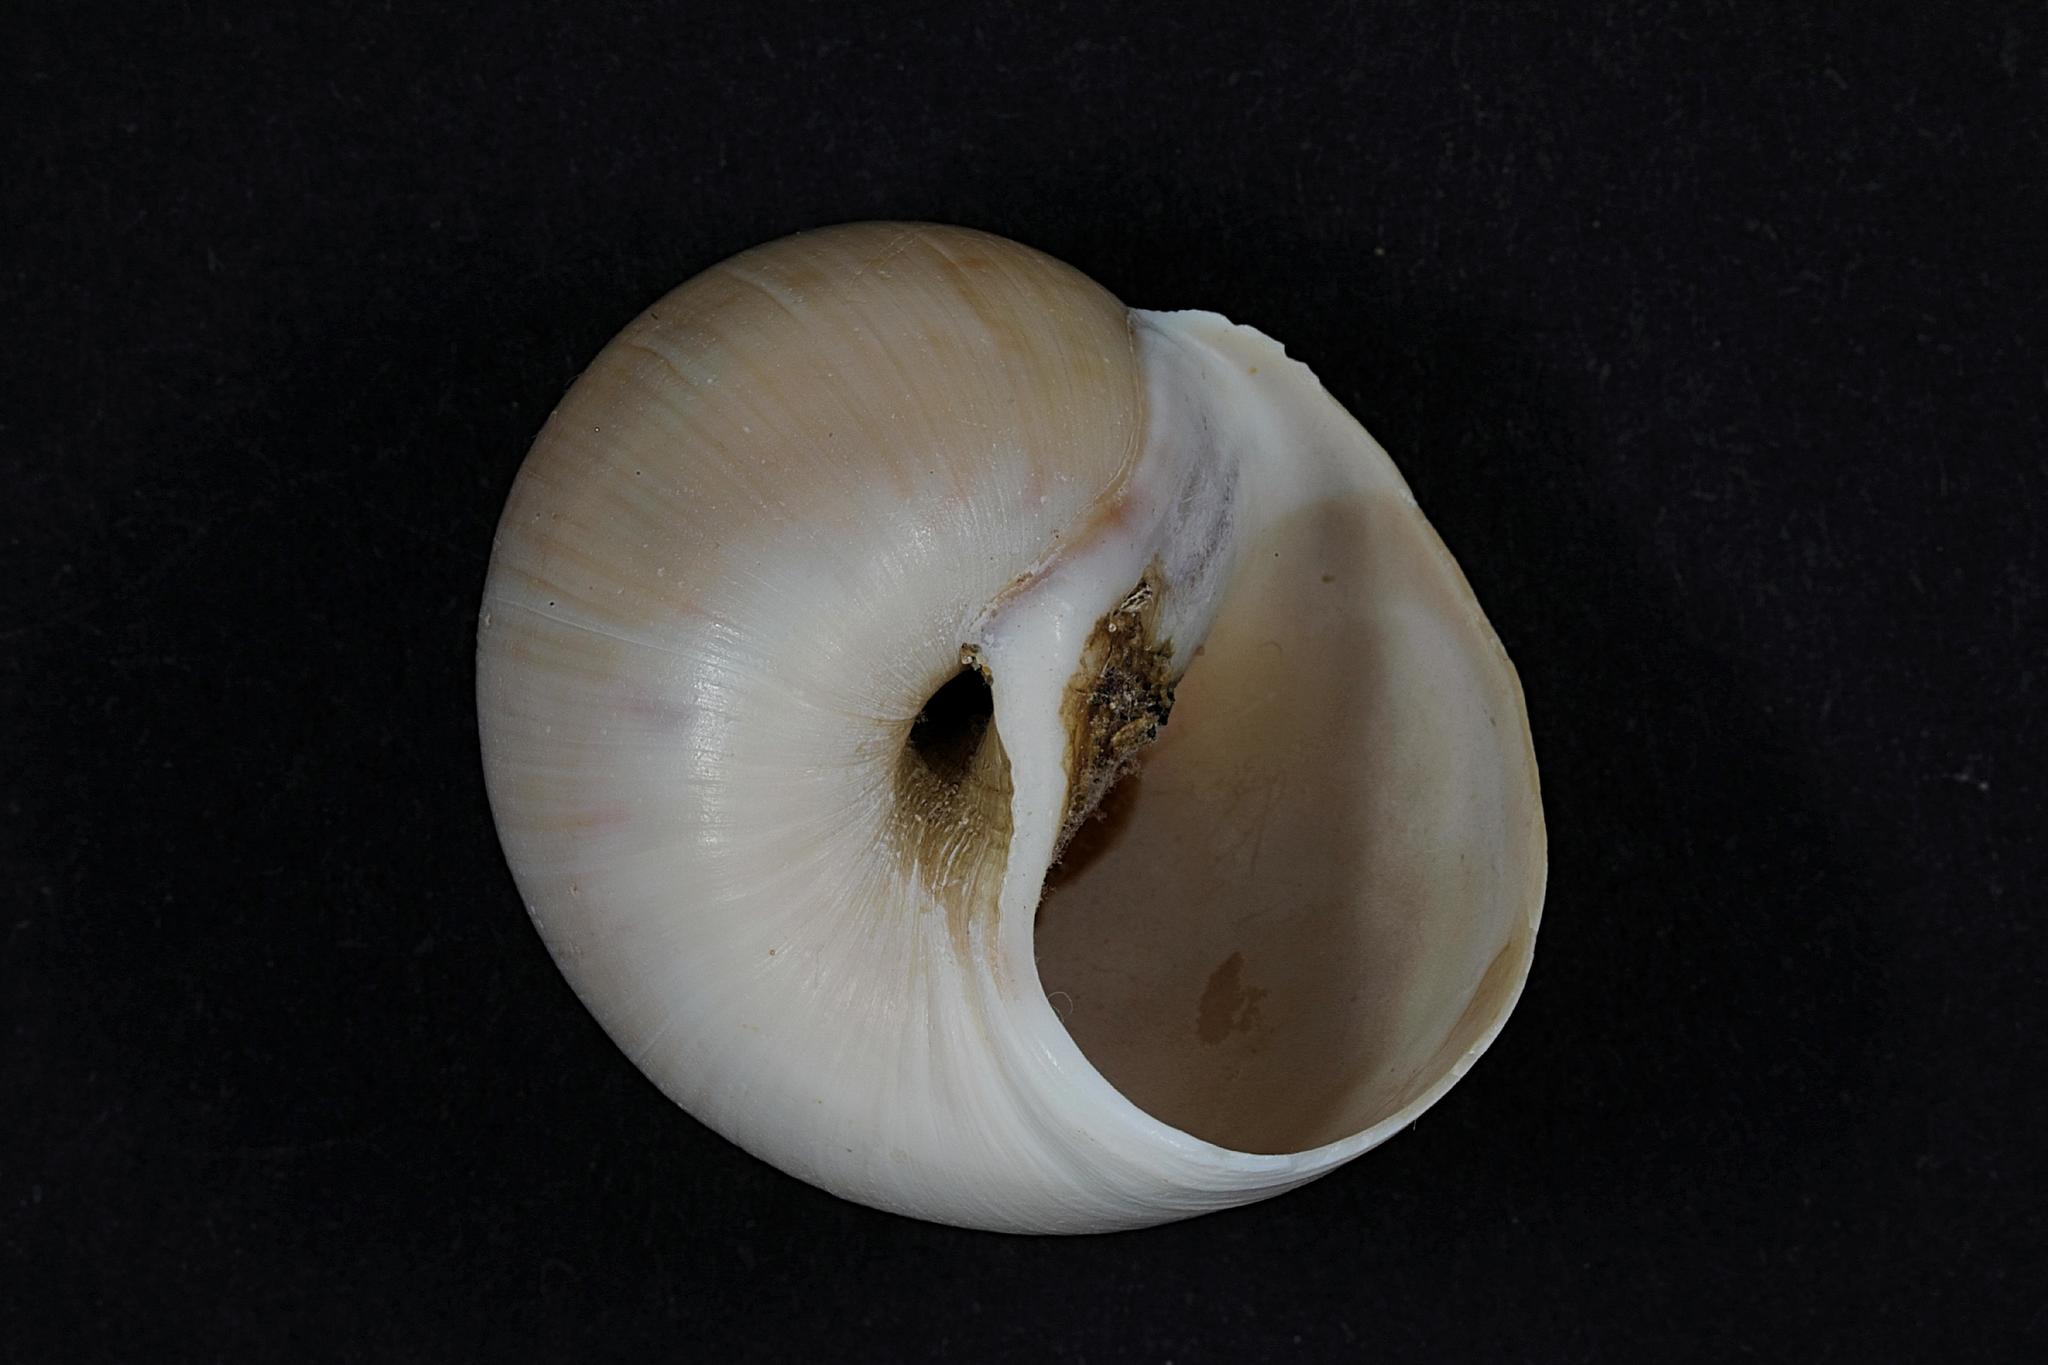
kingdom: Animalia
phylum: Mollusca
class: Gastropoda
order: Littorinimorpha
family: Naticidae
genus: Euspira
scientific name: Euspira catena
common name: Necklace shell
